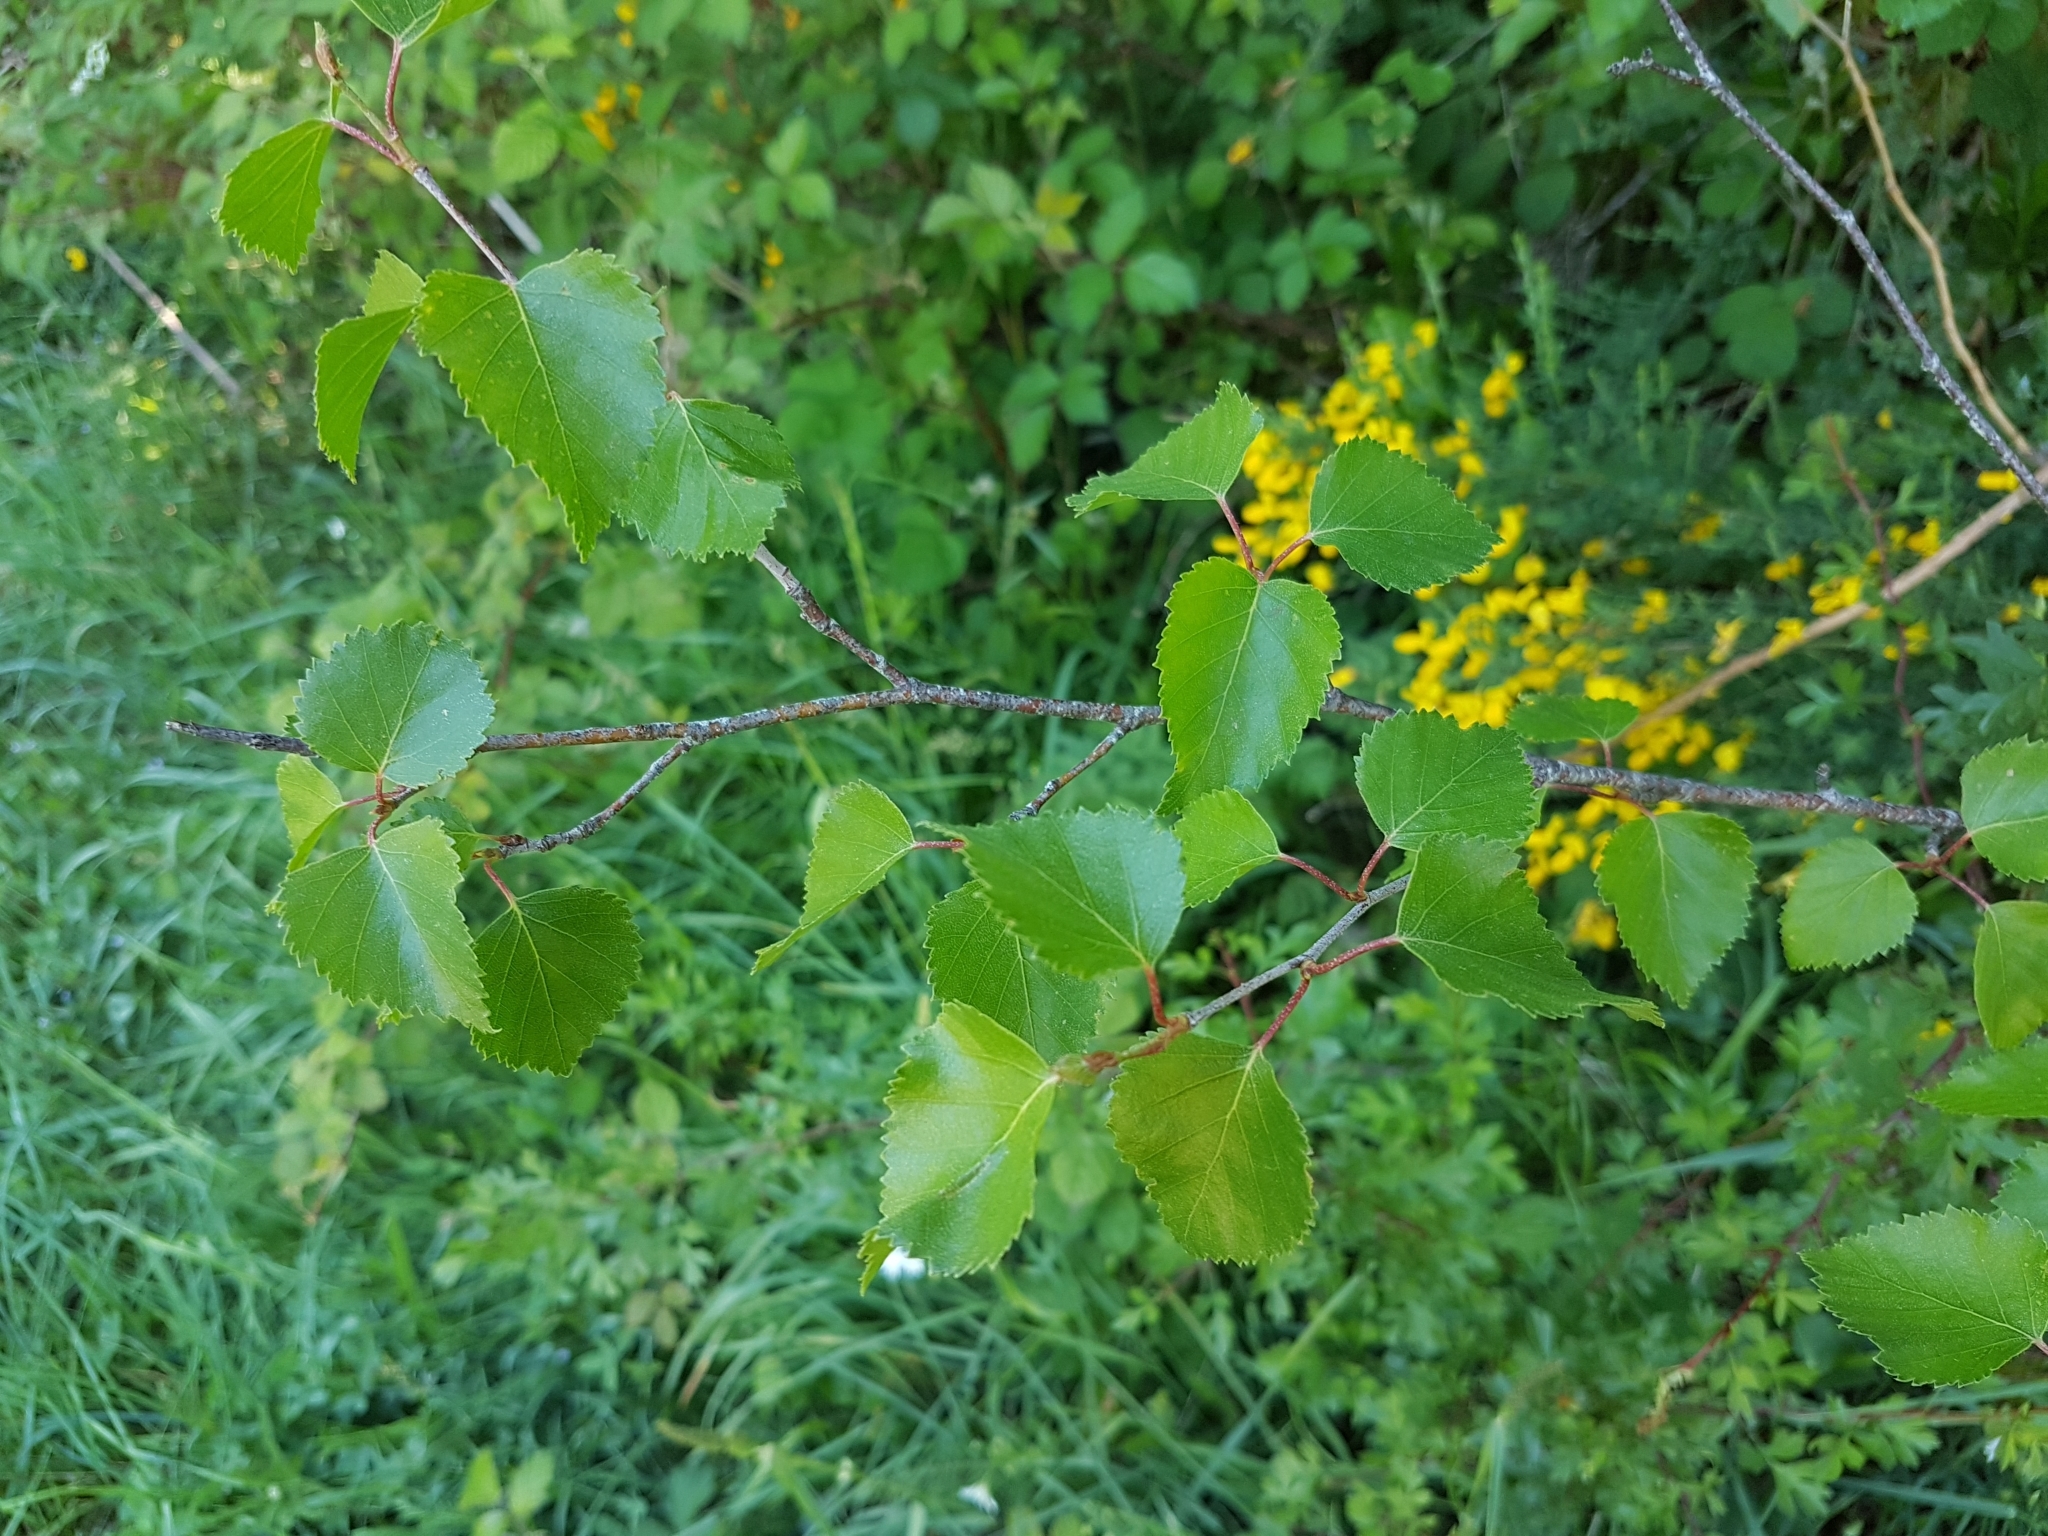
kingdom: Plantae
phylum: Tracheophyta
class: Magnoliopsida
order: Fagales
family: Betulaceae
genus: Betula
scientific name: Betula pubescens
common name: Downy birch
